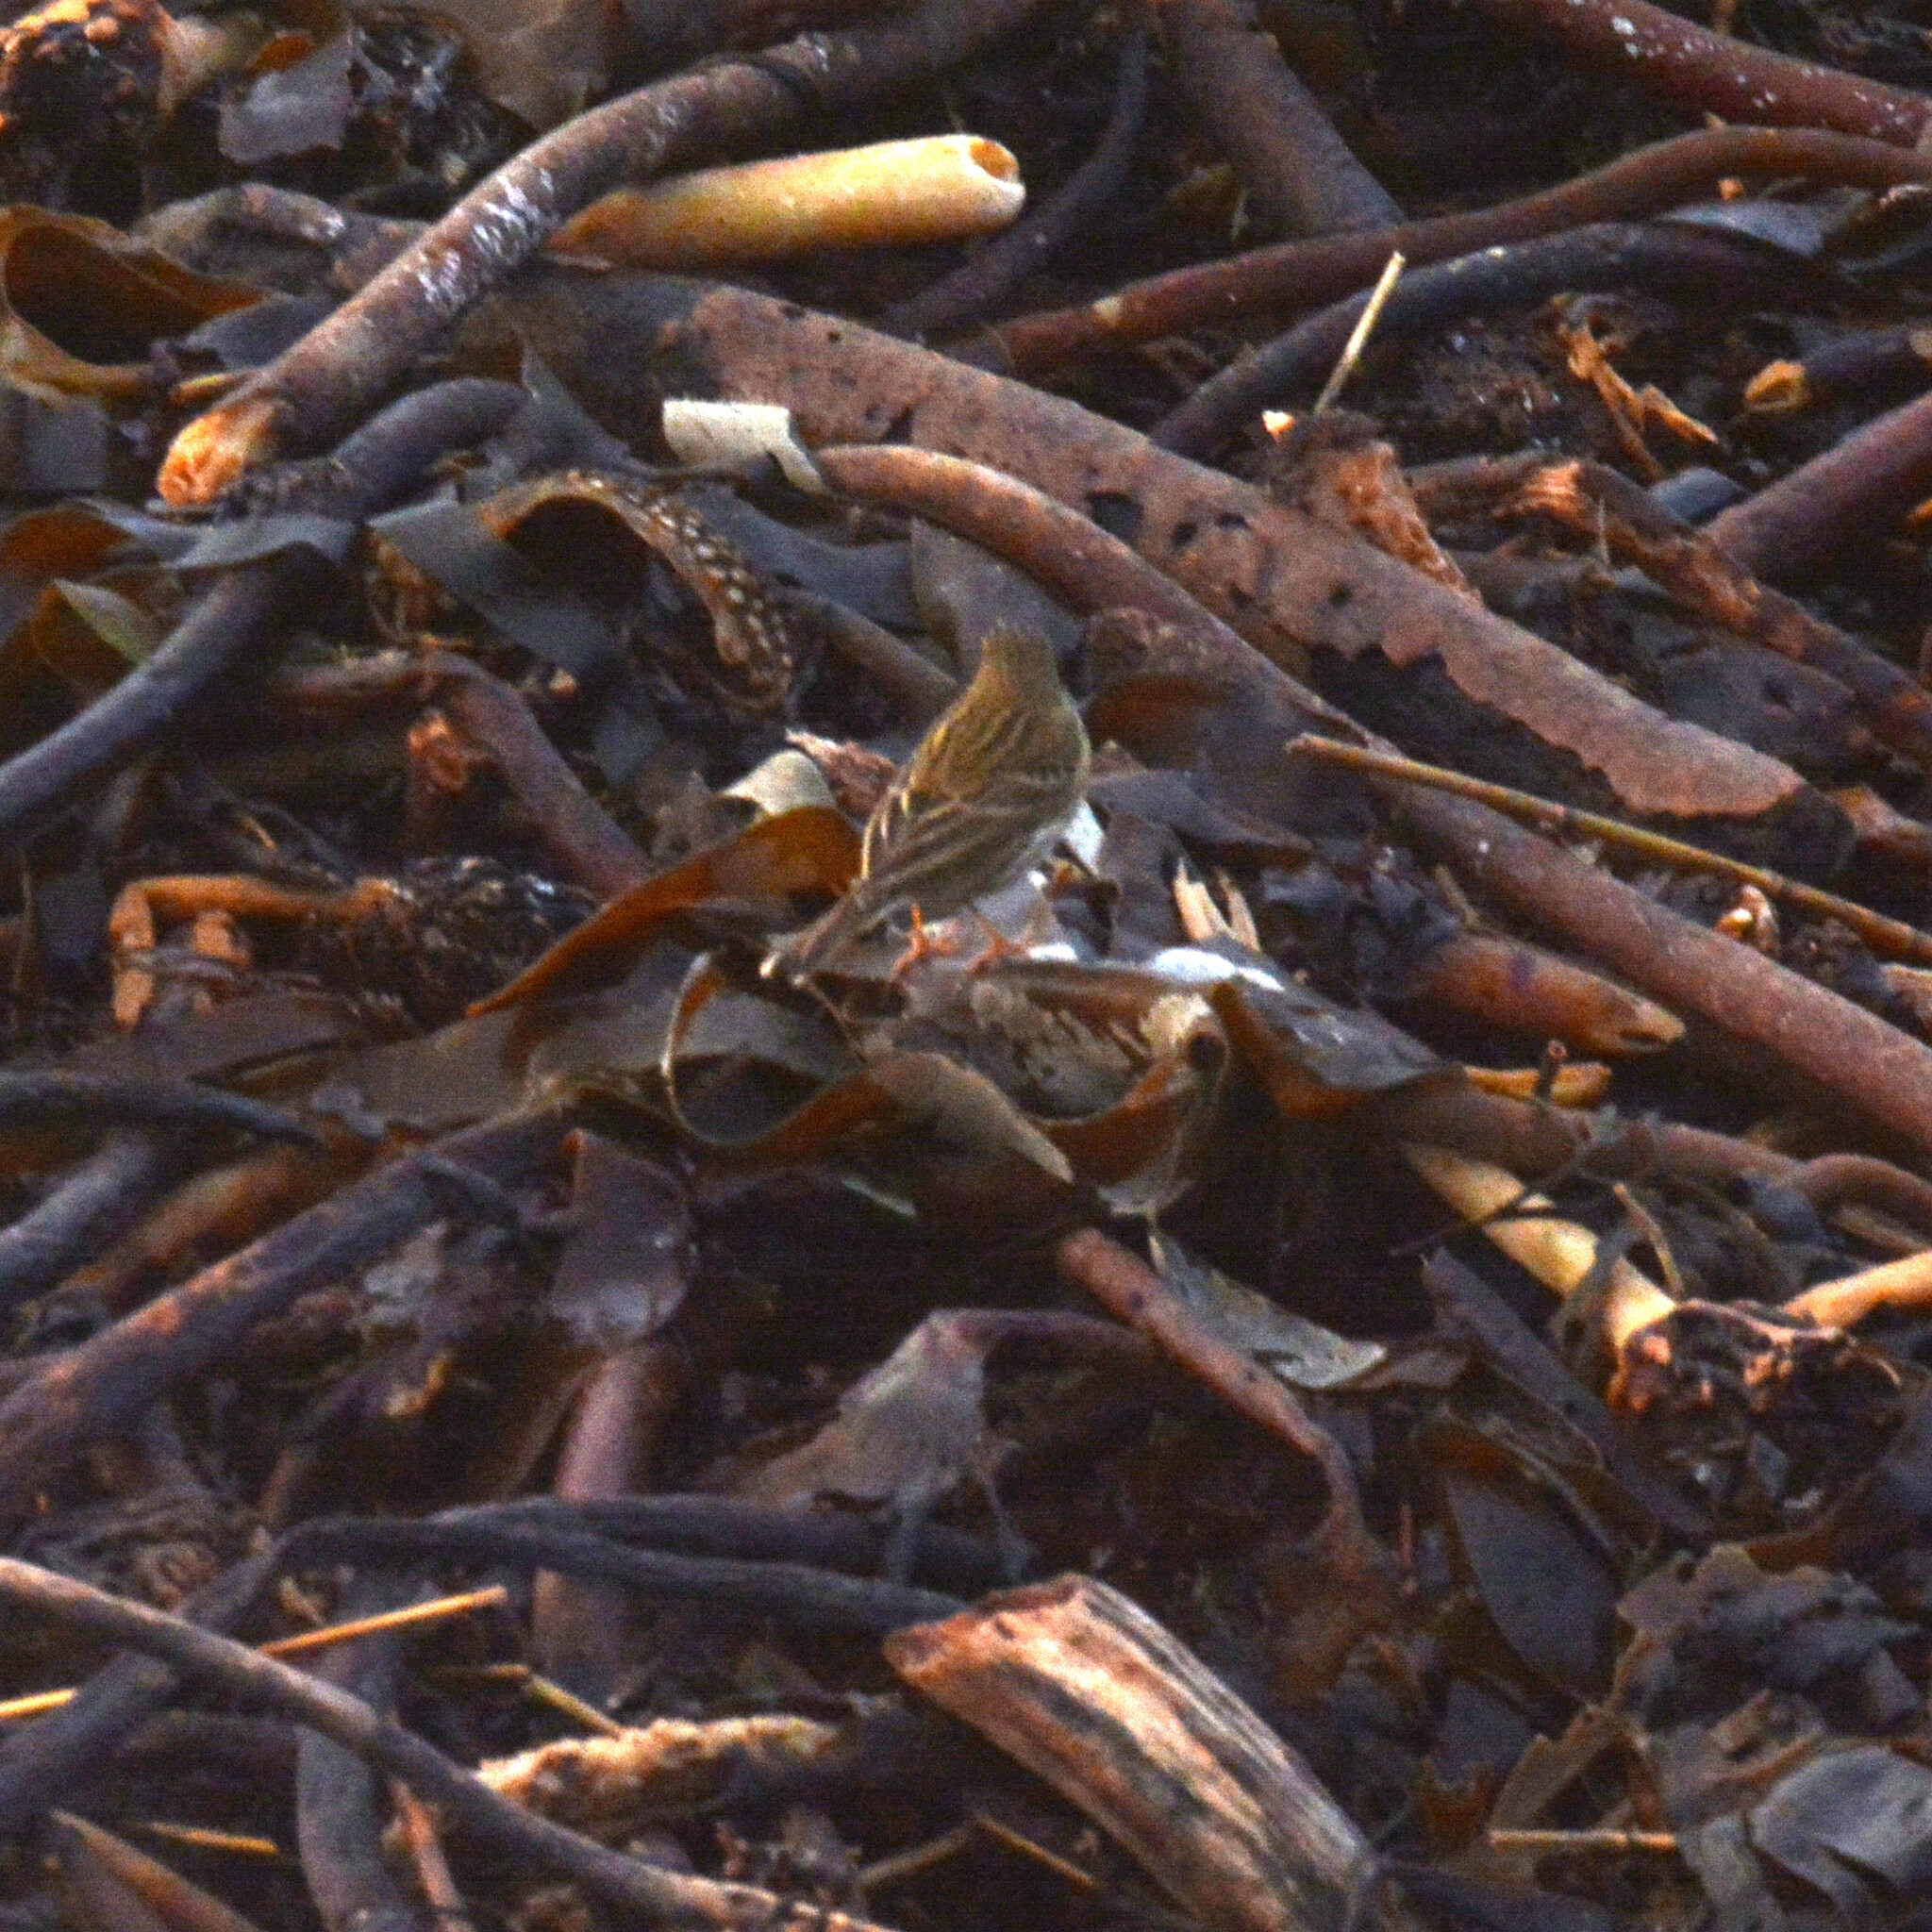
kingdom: Animalia
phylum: Chordata
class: Aves
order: Passeriformes
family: Motacillidae
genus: Anthus
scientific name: Anthus pratensis
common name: Meadow pipit
